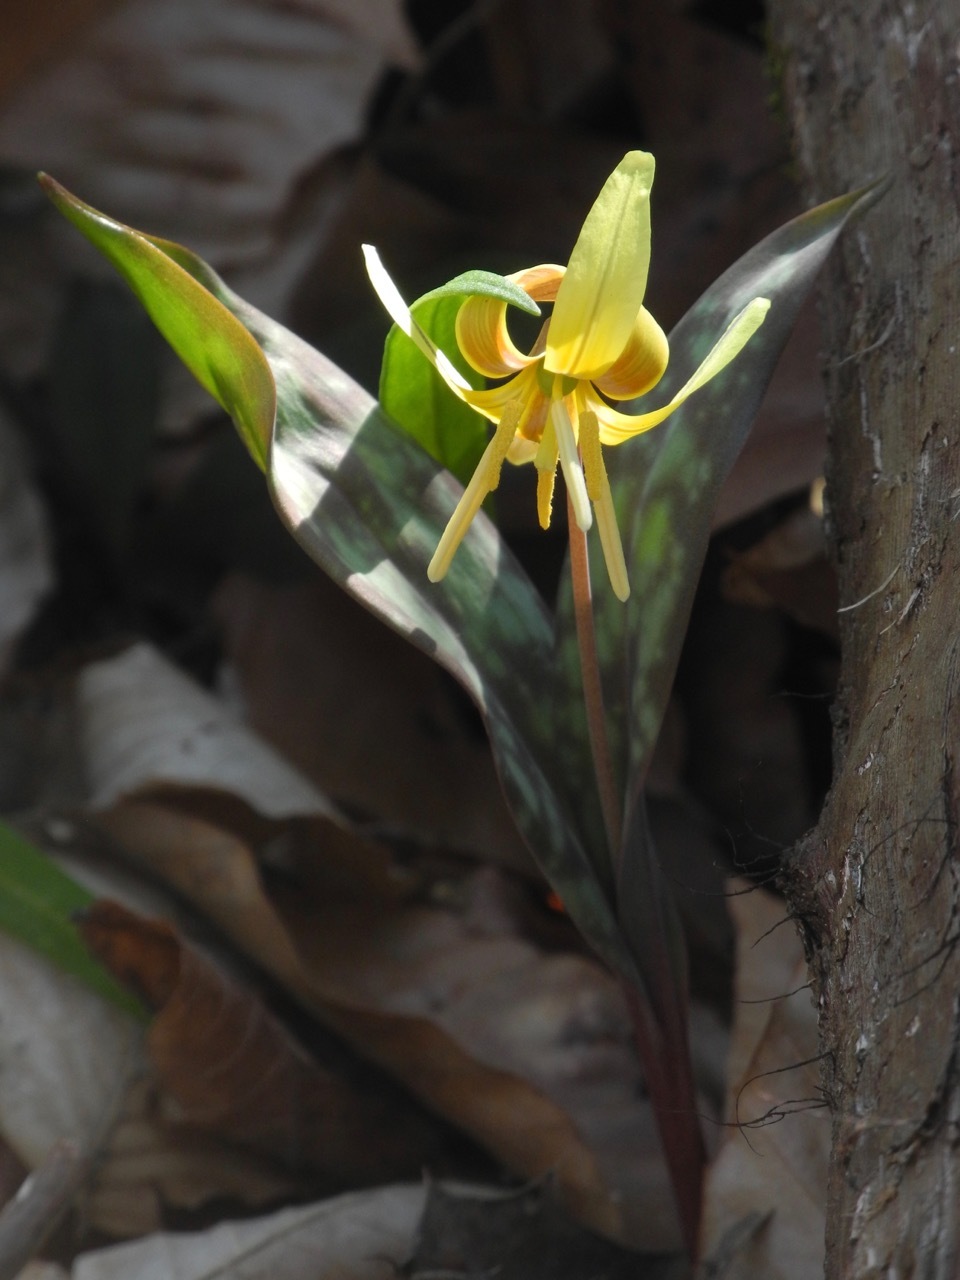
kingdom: Plantae
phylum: Tracheophyta
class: Liliopsida
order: Liliales
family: Liliaceae
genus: Erythronium
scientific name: Erythronium americanum
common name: Yellow adder's-tongue
